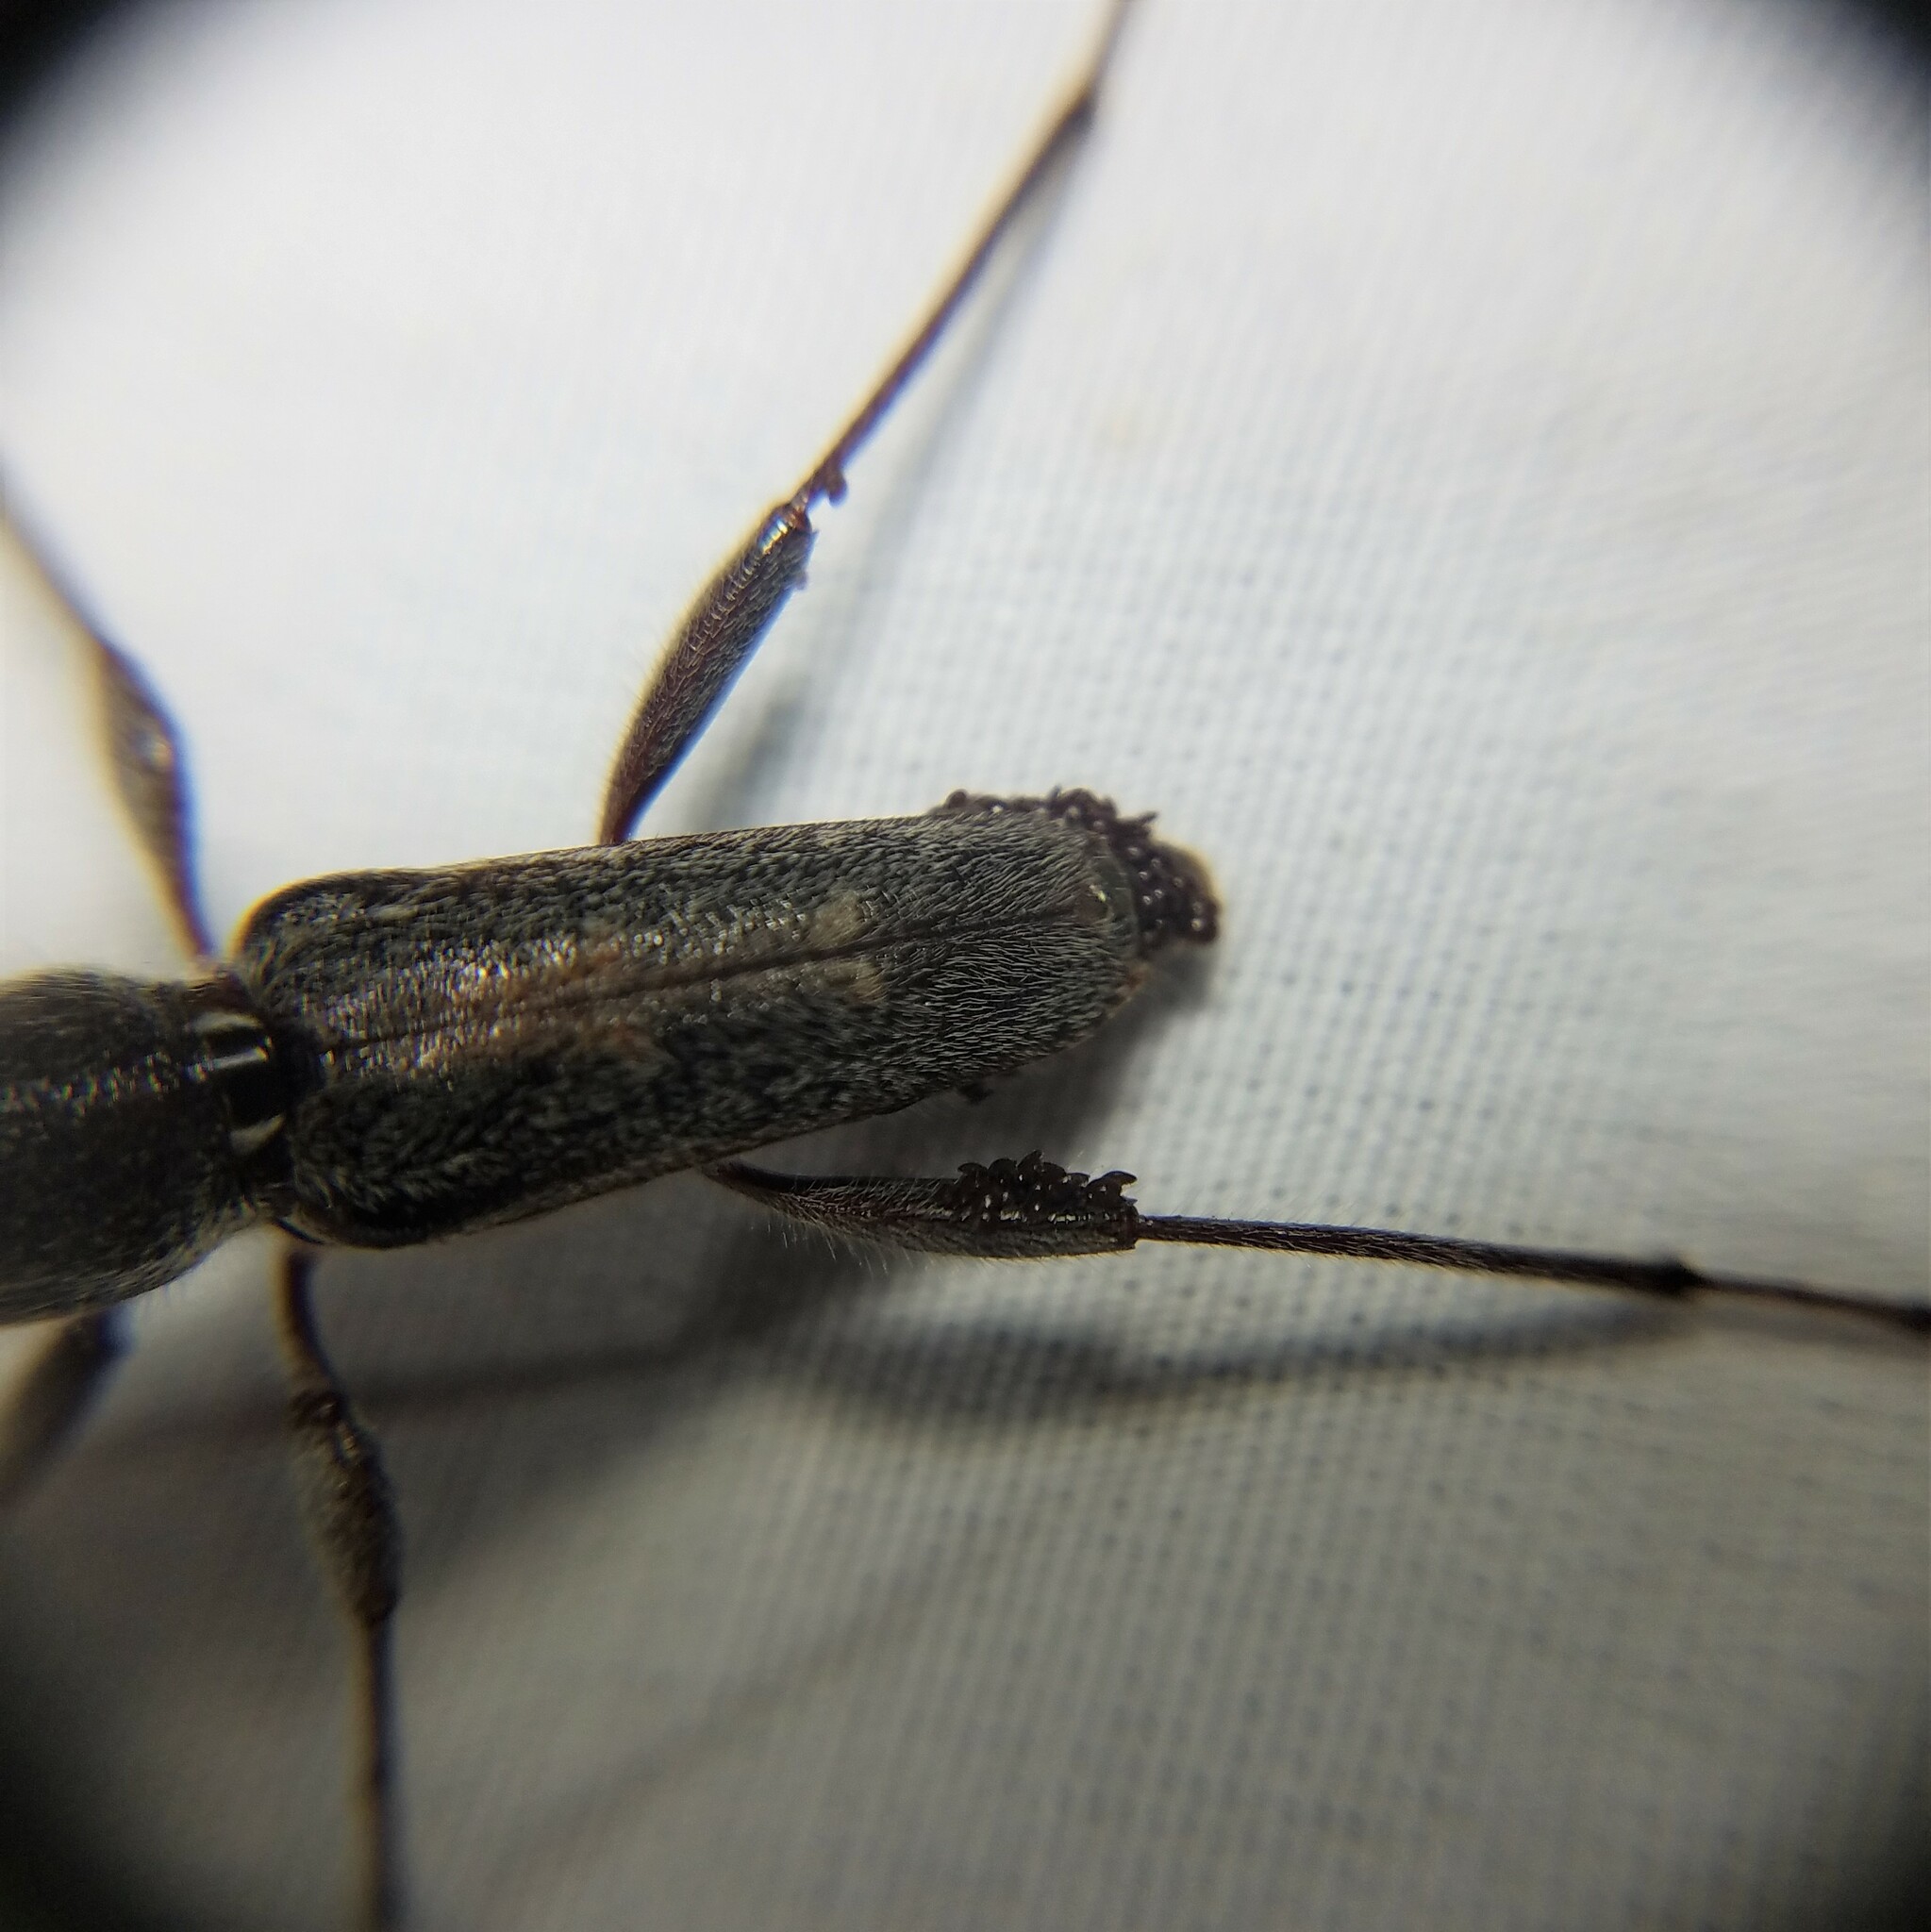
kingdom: Animalia
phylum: Arthropoda
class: Insecta
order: Coleoptera
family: Cerambycidae
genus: Xylotrechus
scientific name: Xylotrechus sagittatus
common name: Arrowhead borer
